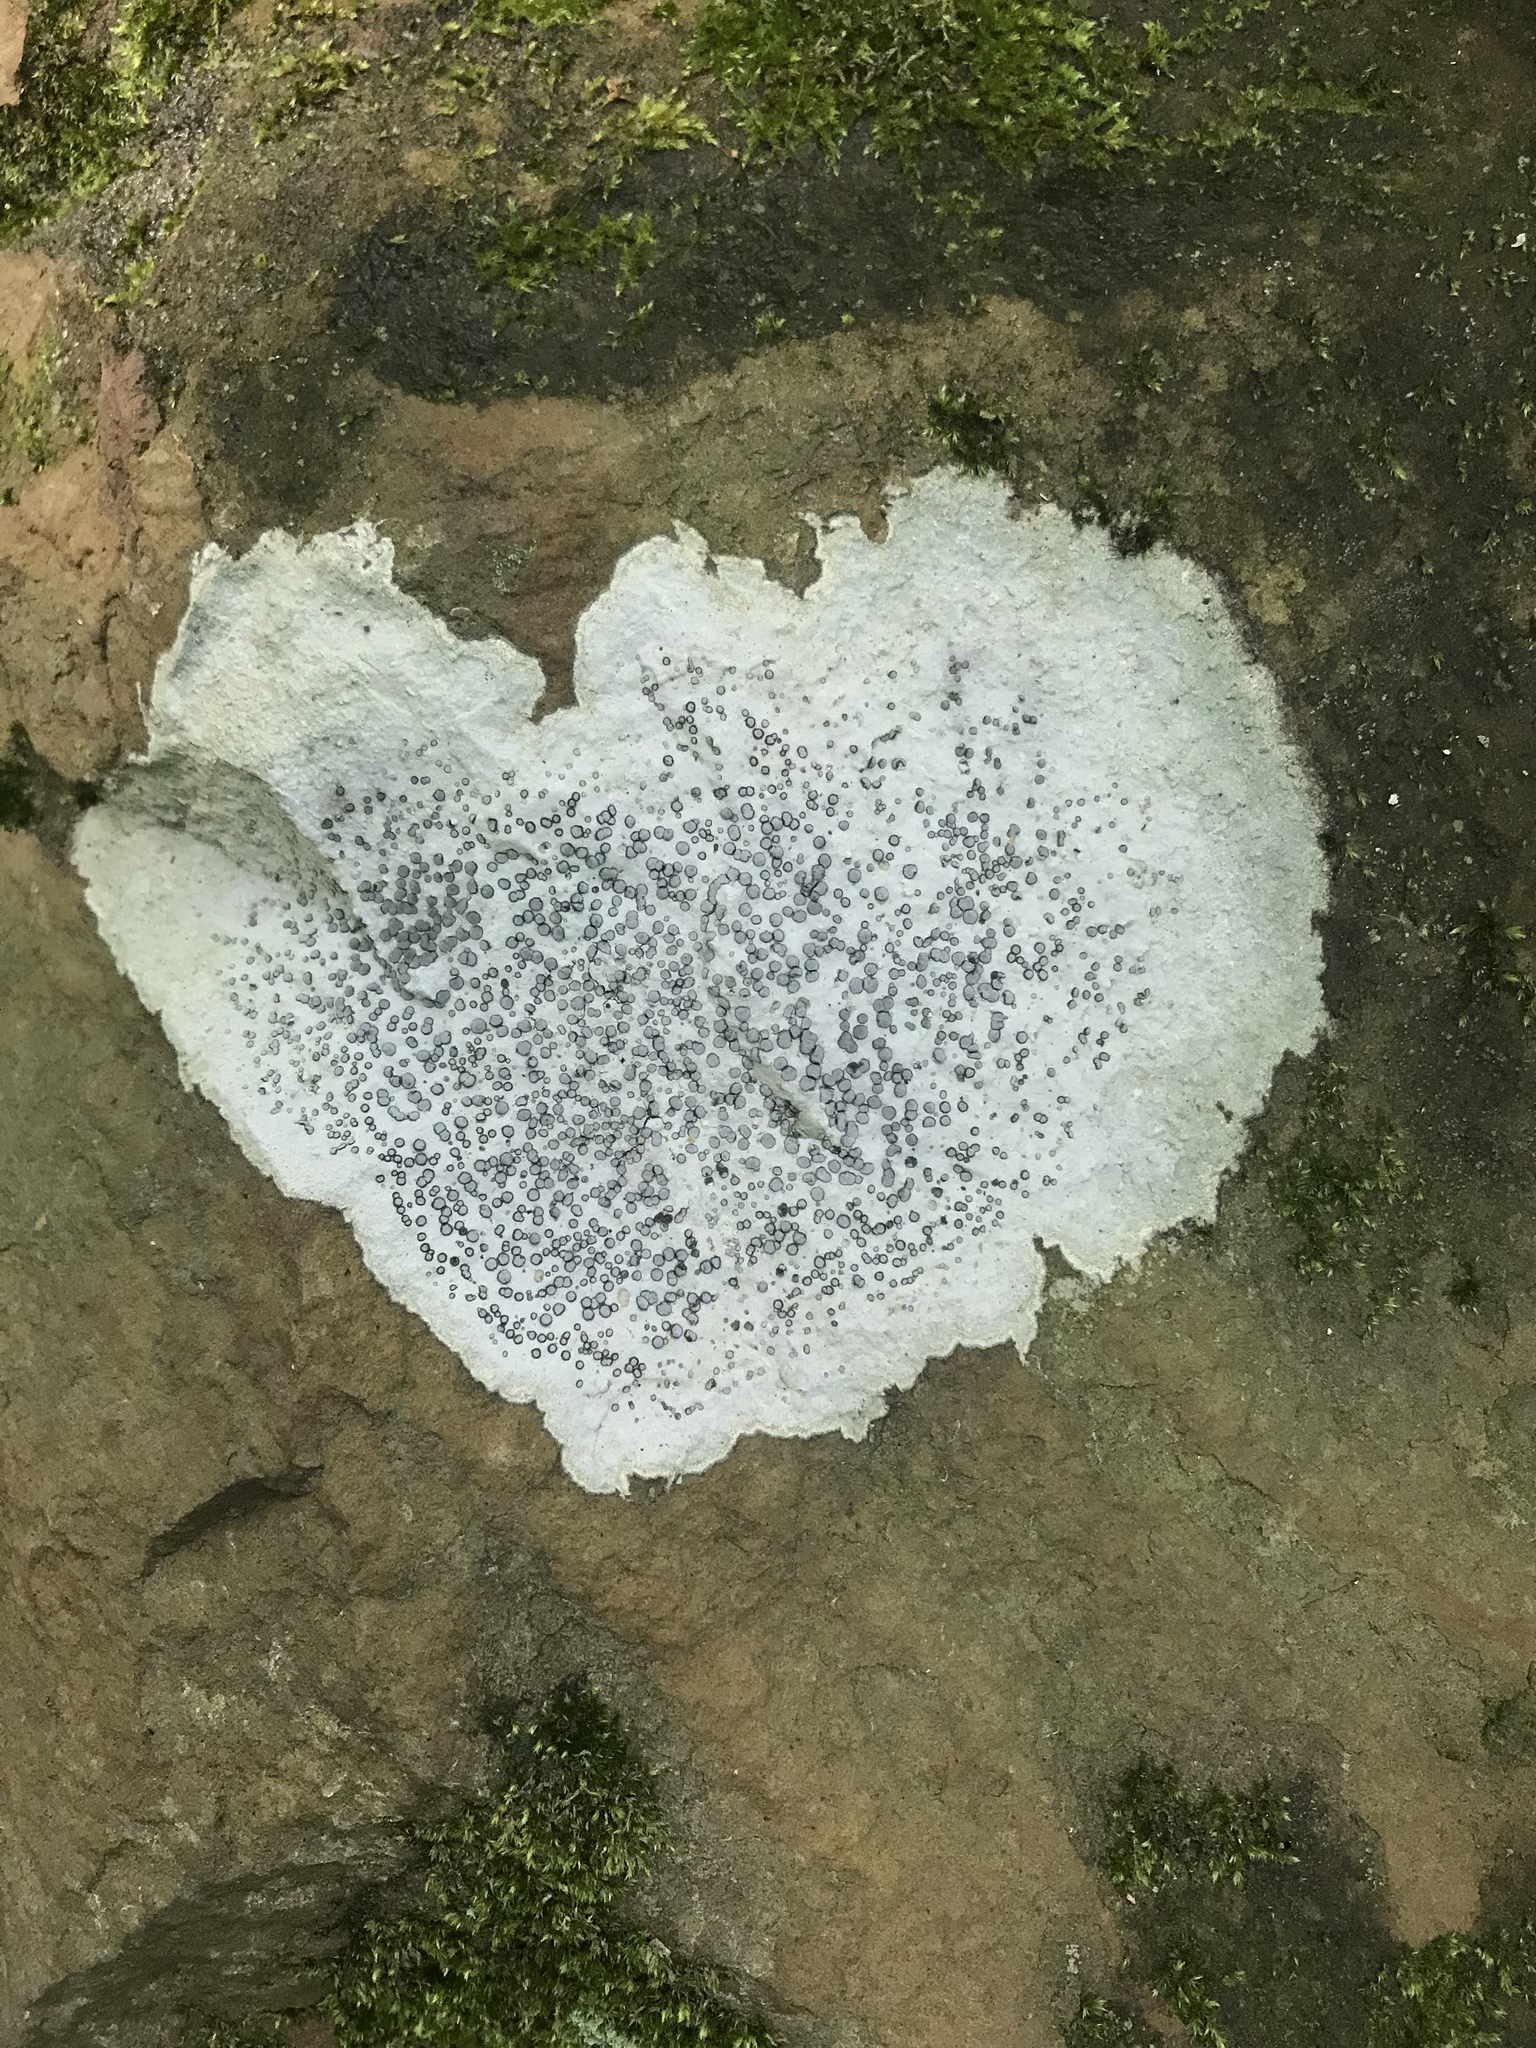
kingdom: Fungi
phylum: Ascomycota
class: Lecanoromycetes
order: Lecideales
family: Lecideaceae
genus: Porpidia
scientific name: Porpidia albocaerulescens
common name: Smokey-eyed boulder lichen
